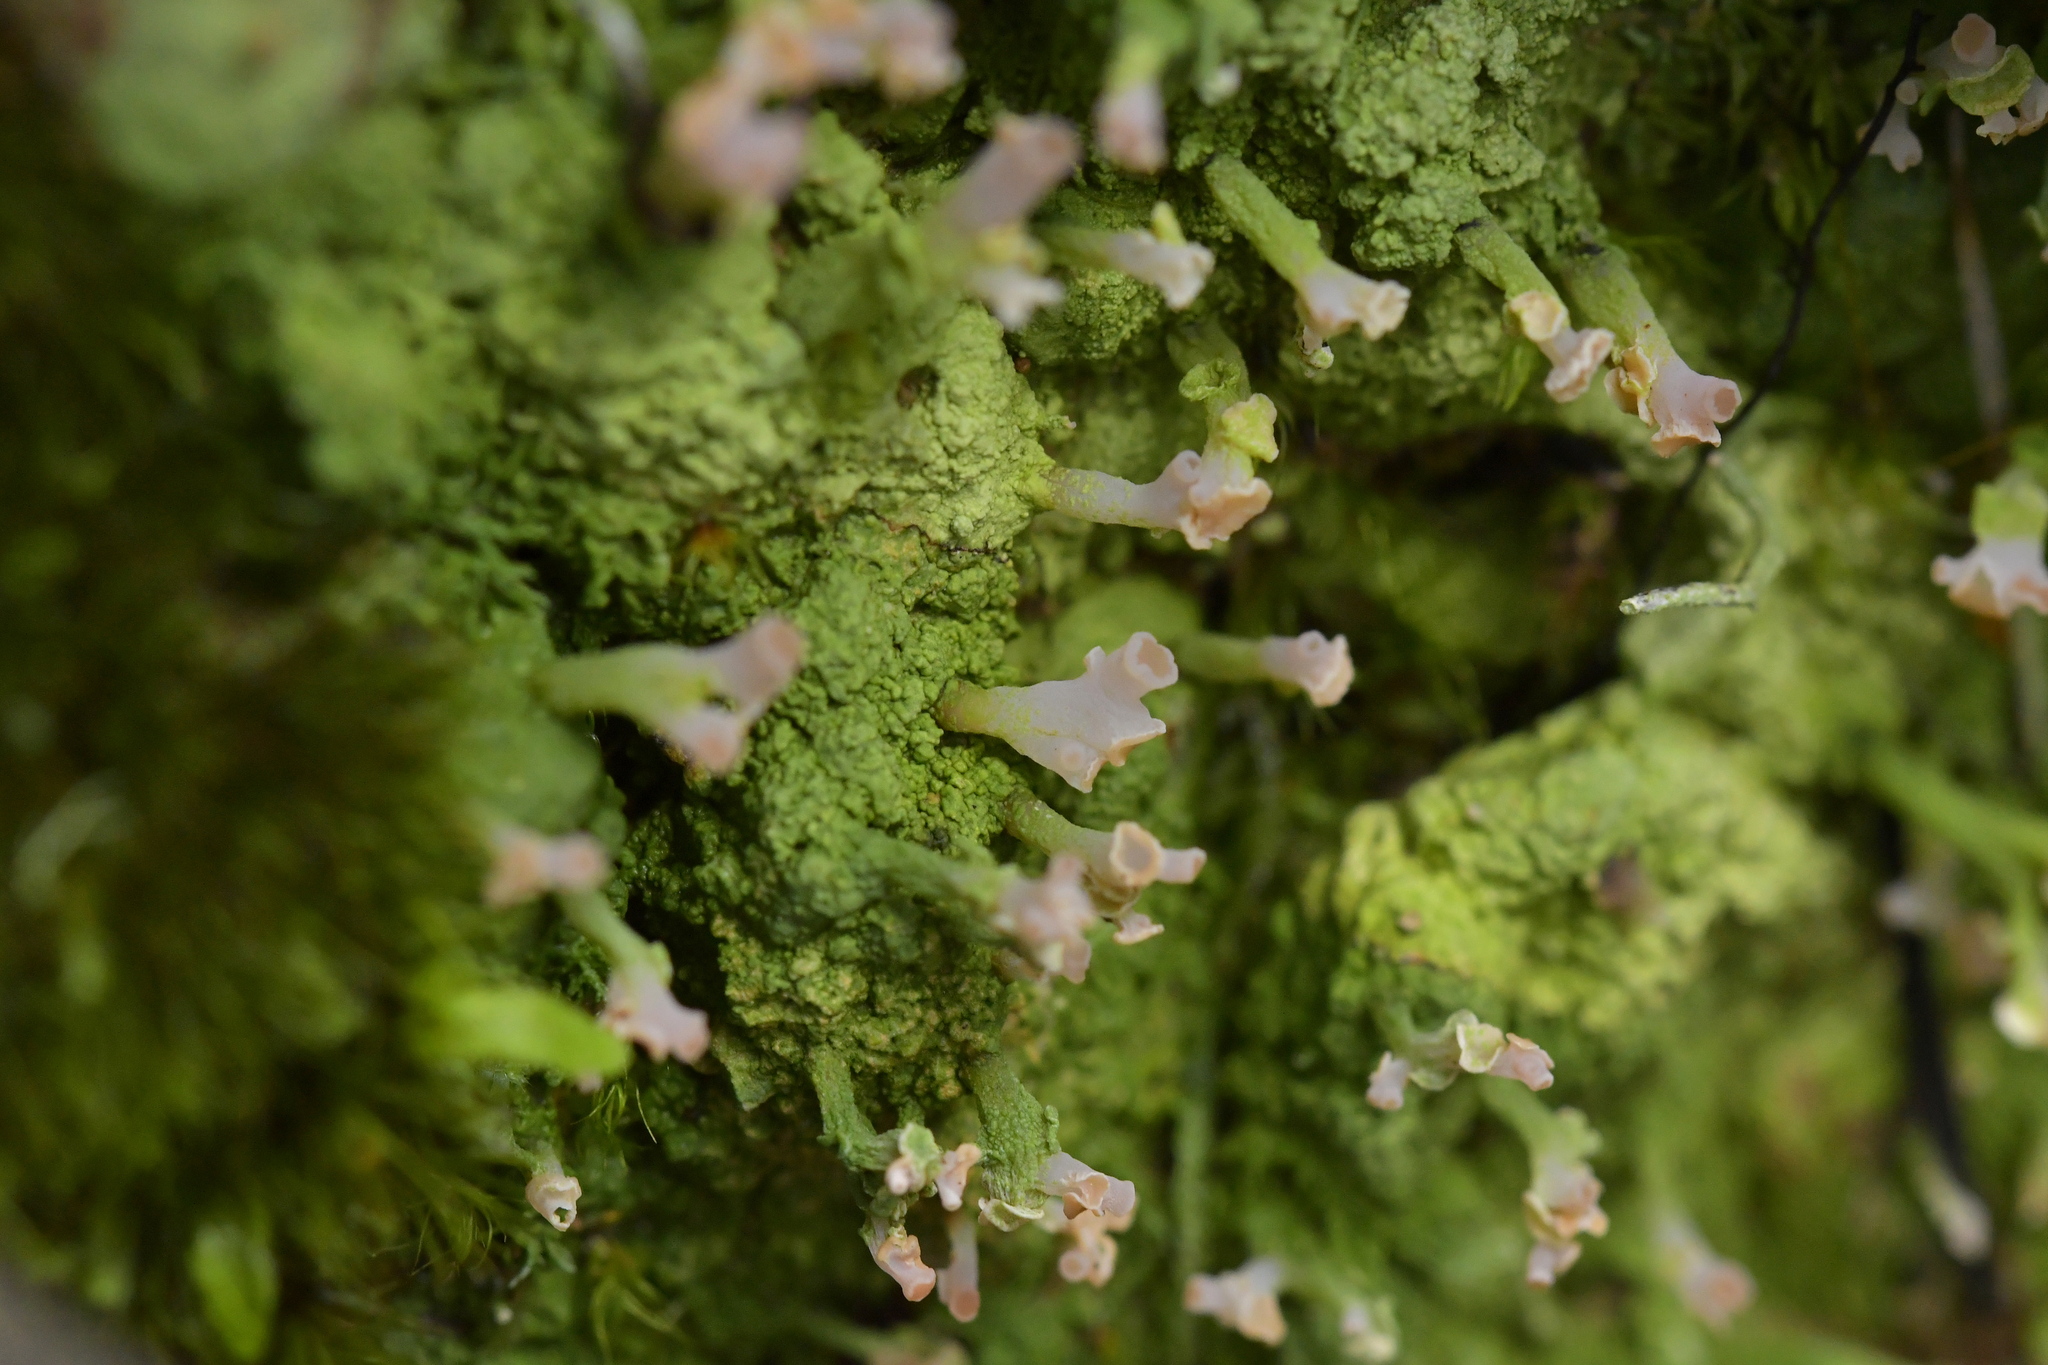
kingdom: Fungi
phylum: Ascomycota
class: Lecanoromycetes
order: Baeomycetales
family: Baeomycetaceae
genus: Baeomyces
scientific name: Baeomyces heteromorphus
